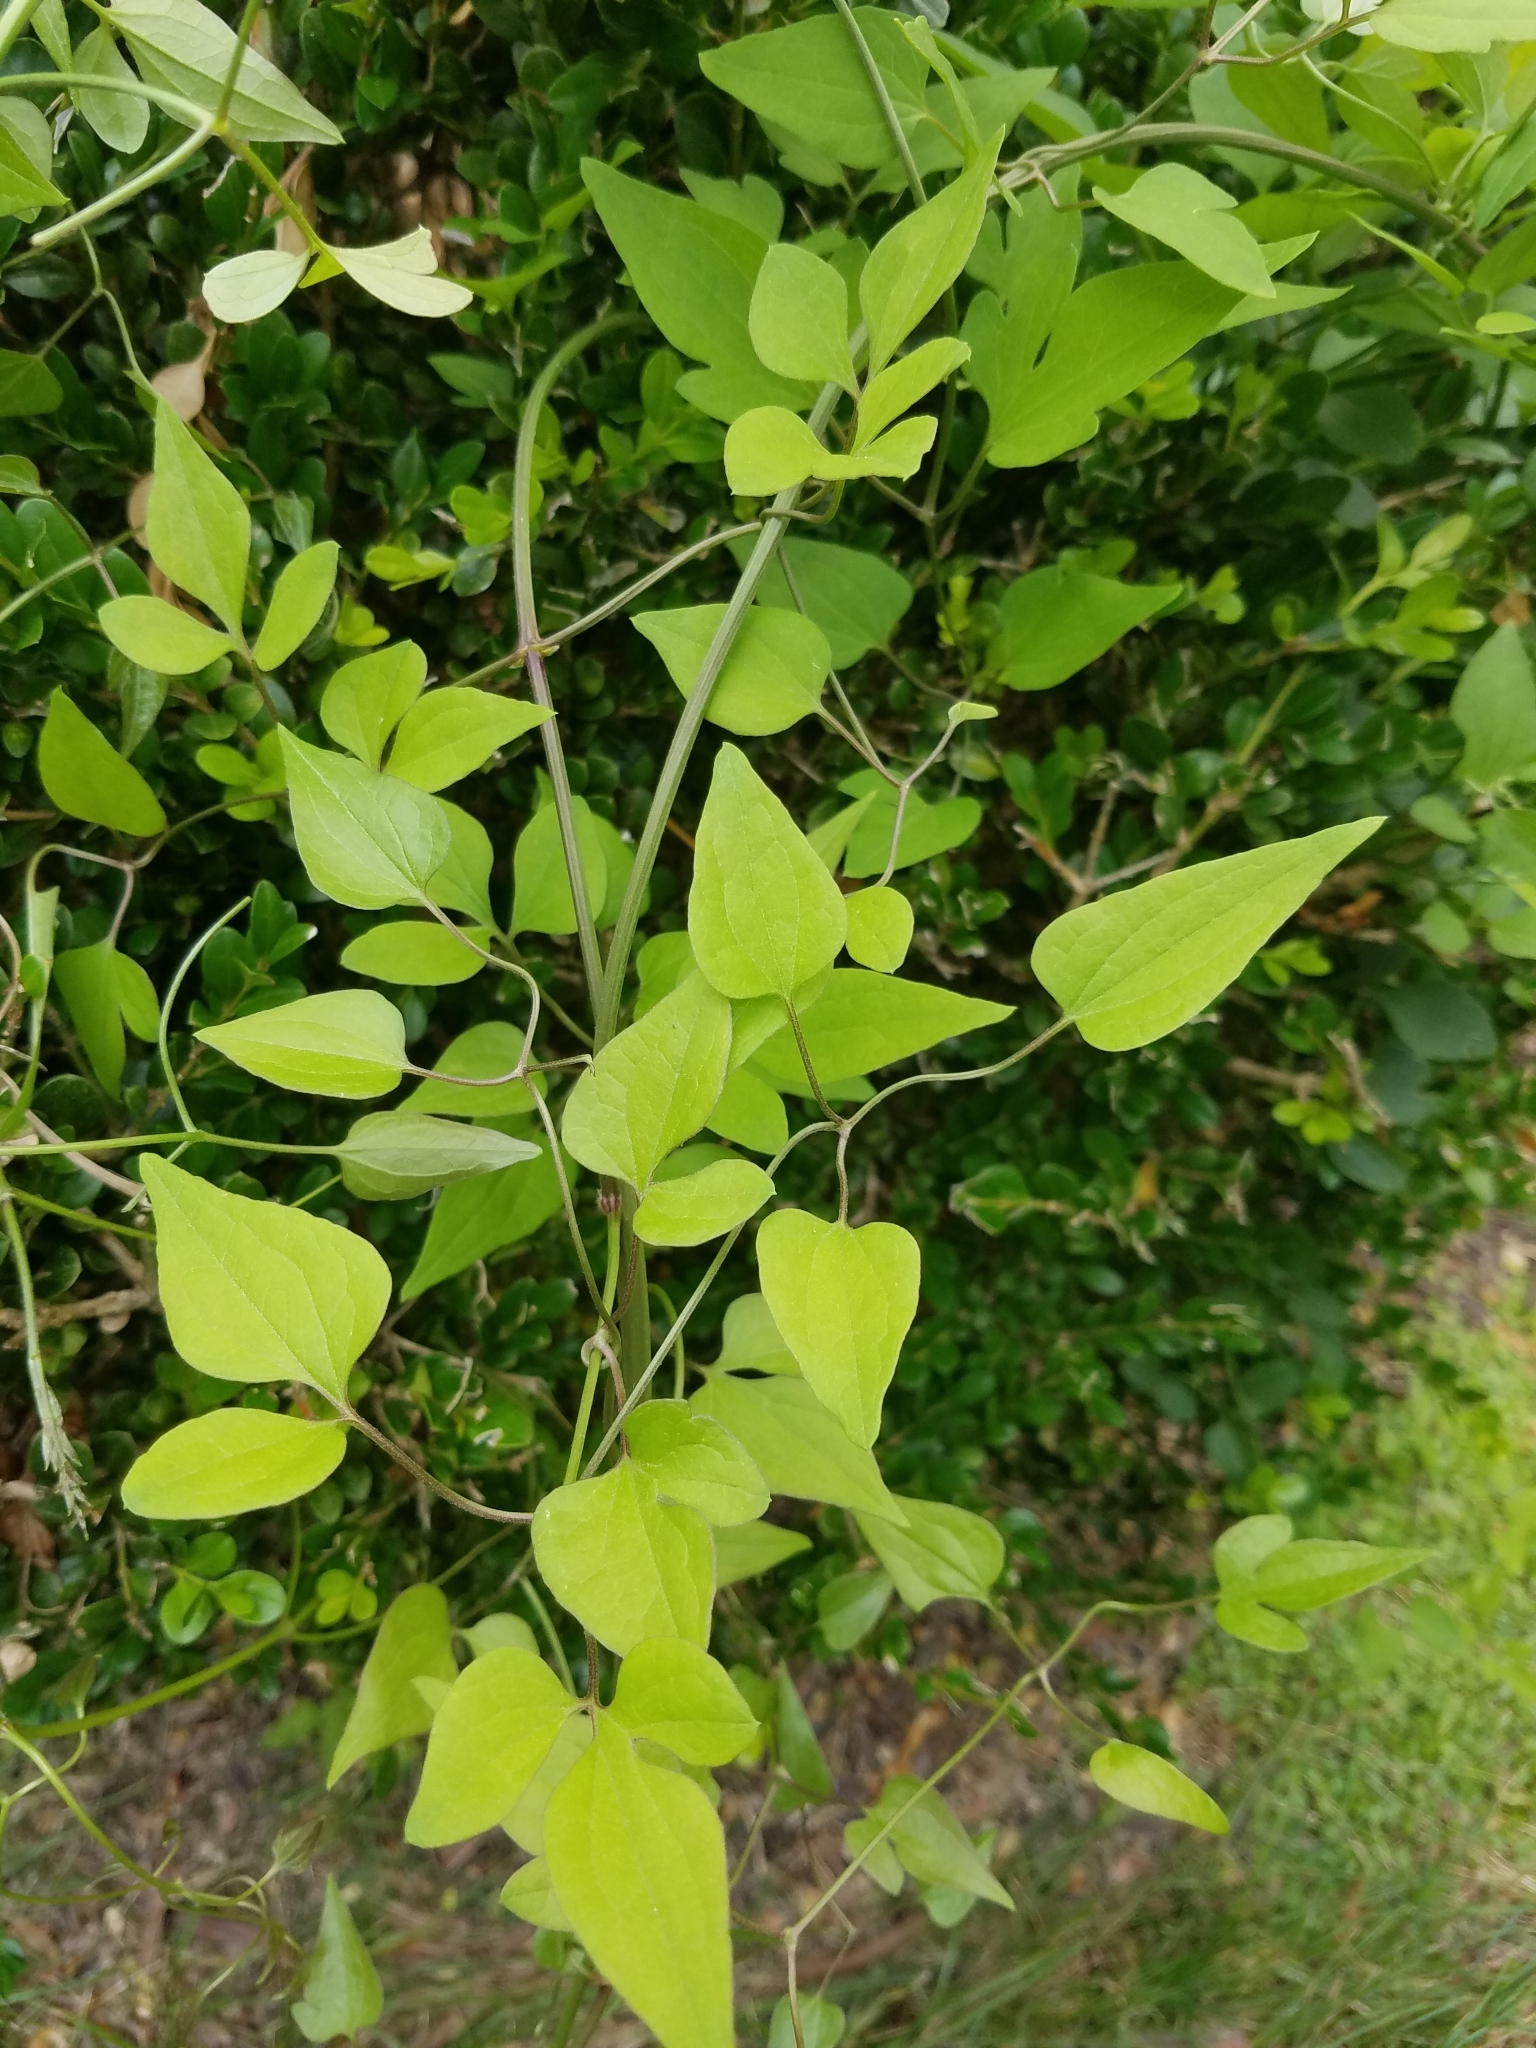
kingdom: Plantae
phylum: Tracheophyta
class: Magnoliopsida
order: Ranunculales
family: Ranunculaceae
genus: Clematis
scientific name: Clematis terniflora
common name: Sweet autumn clematis
